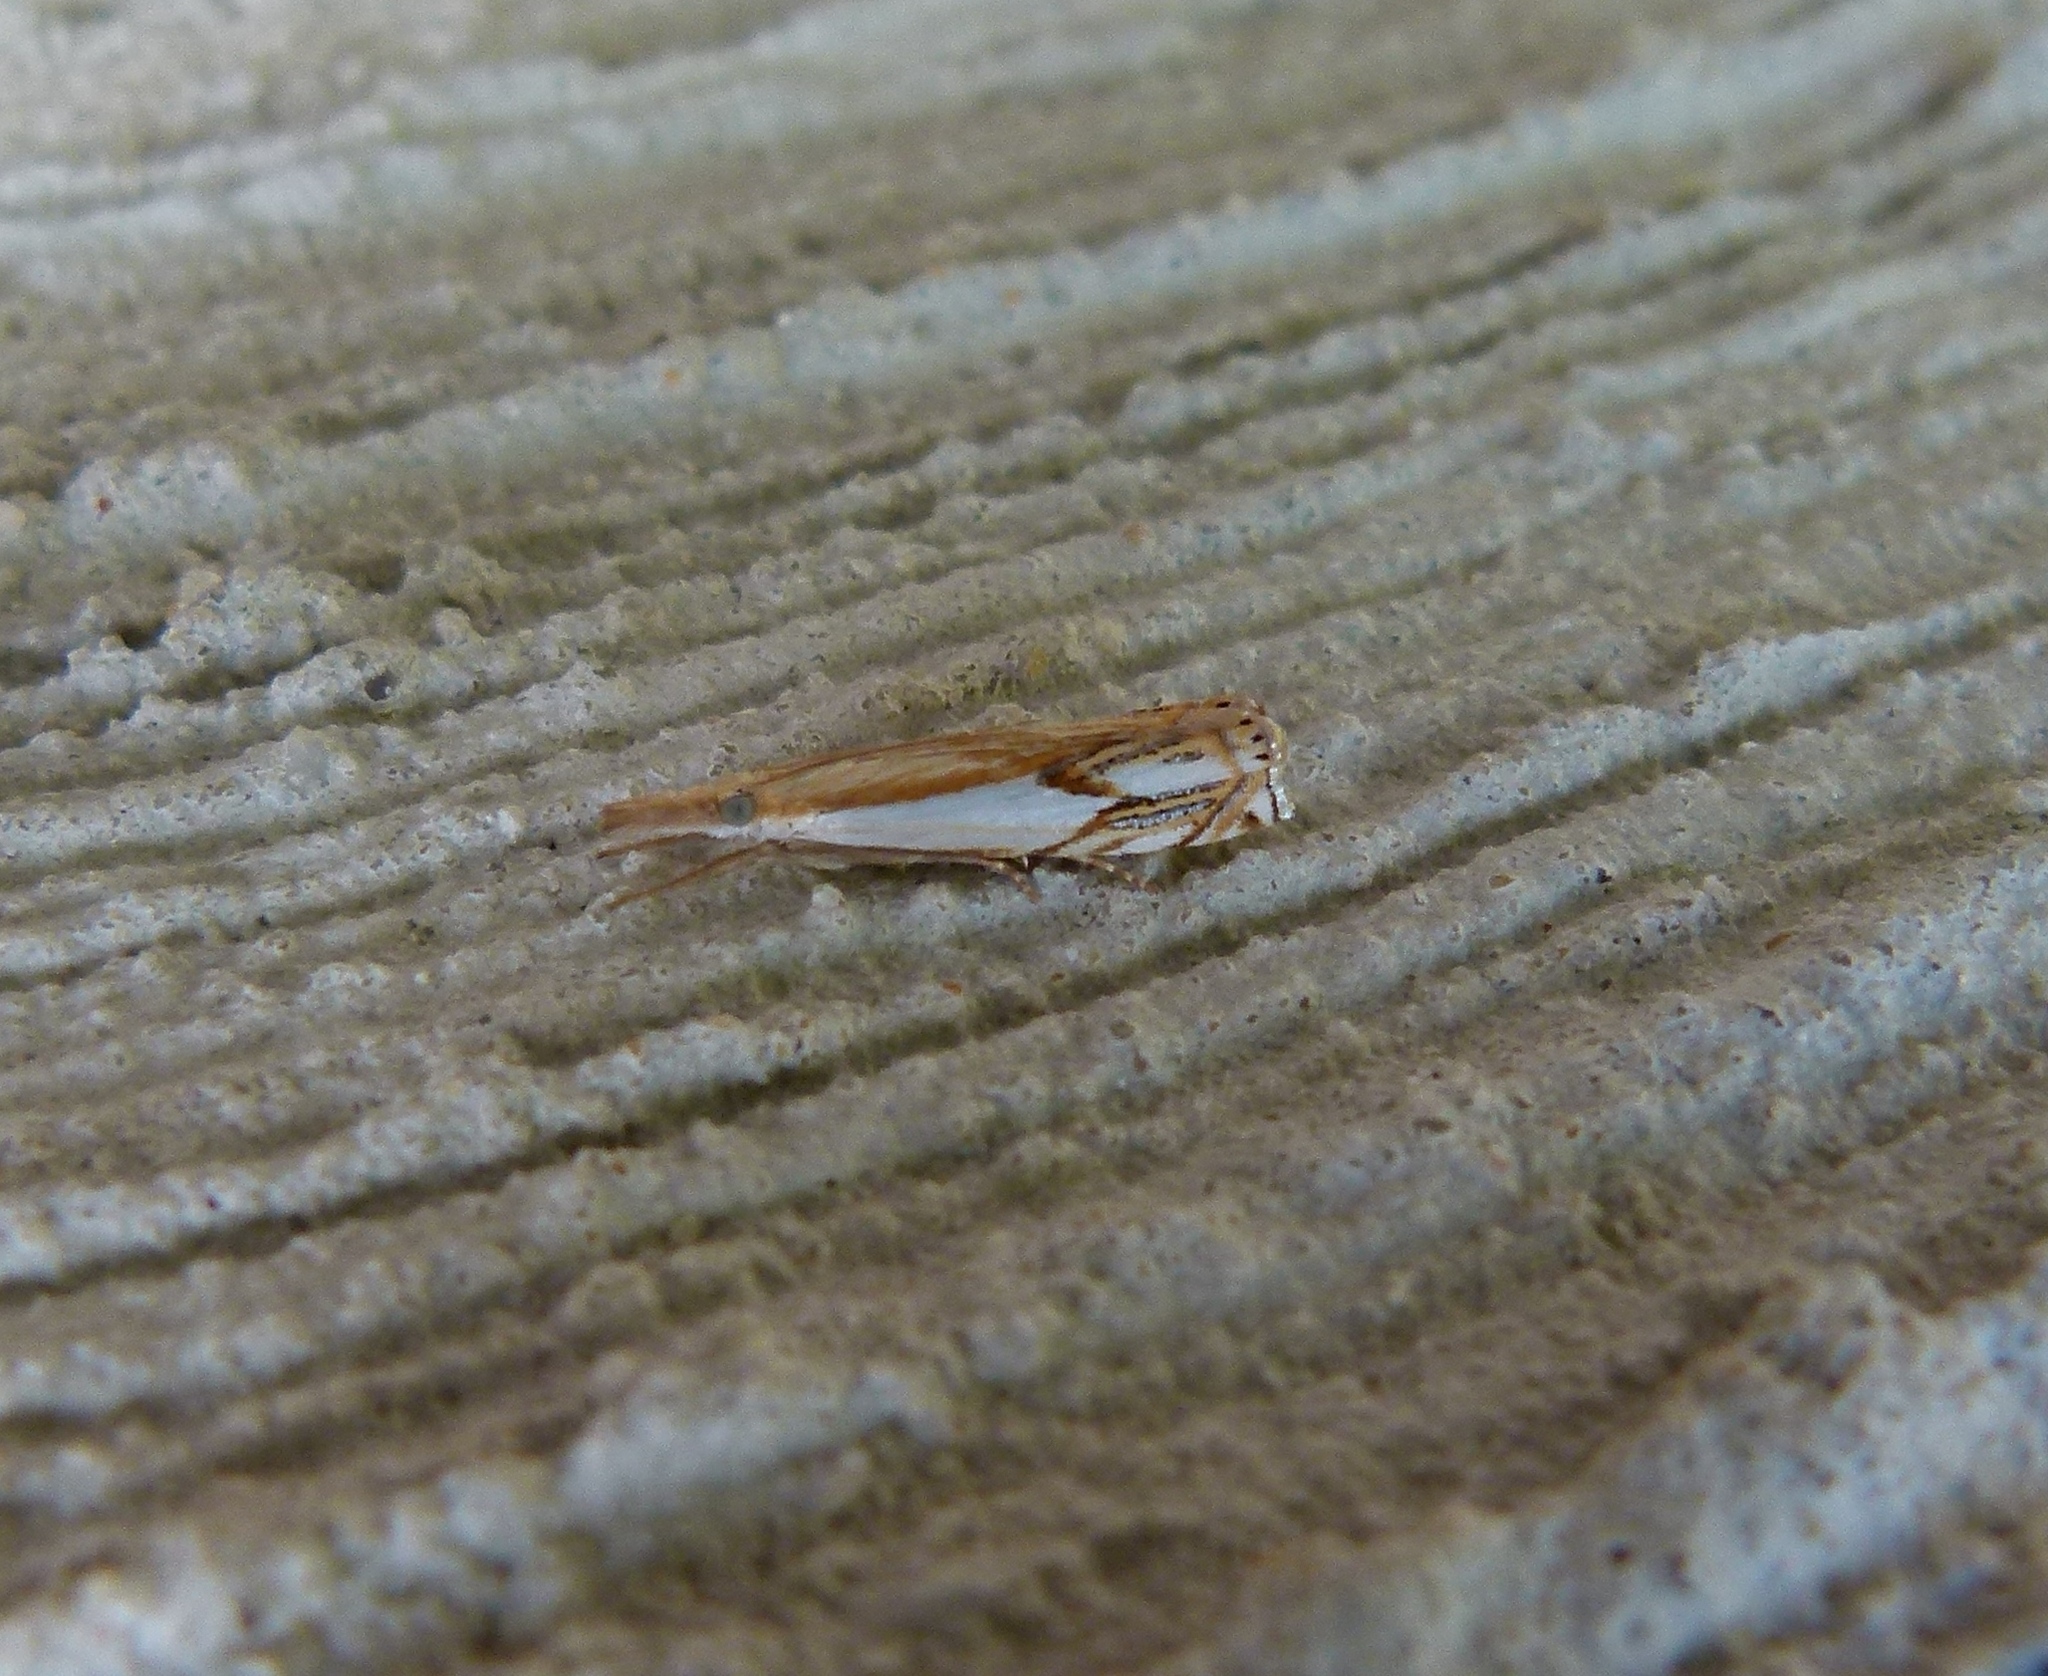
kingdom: Animalia
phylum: Arthropoda
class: Insecta
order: Lepidoptera
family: Crambidae
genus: Crambus
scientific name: Crambus agitatellus
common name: Double-banded grass-veneer
